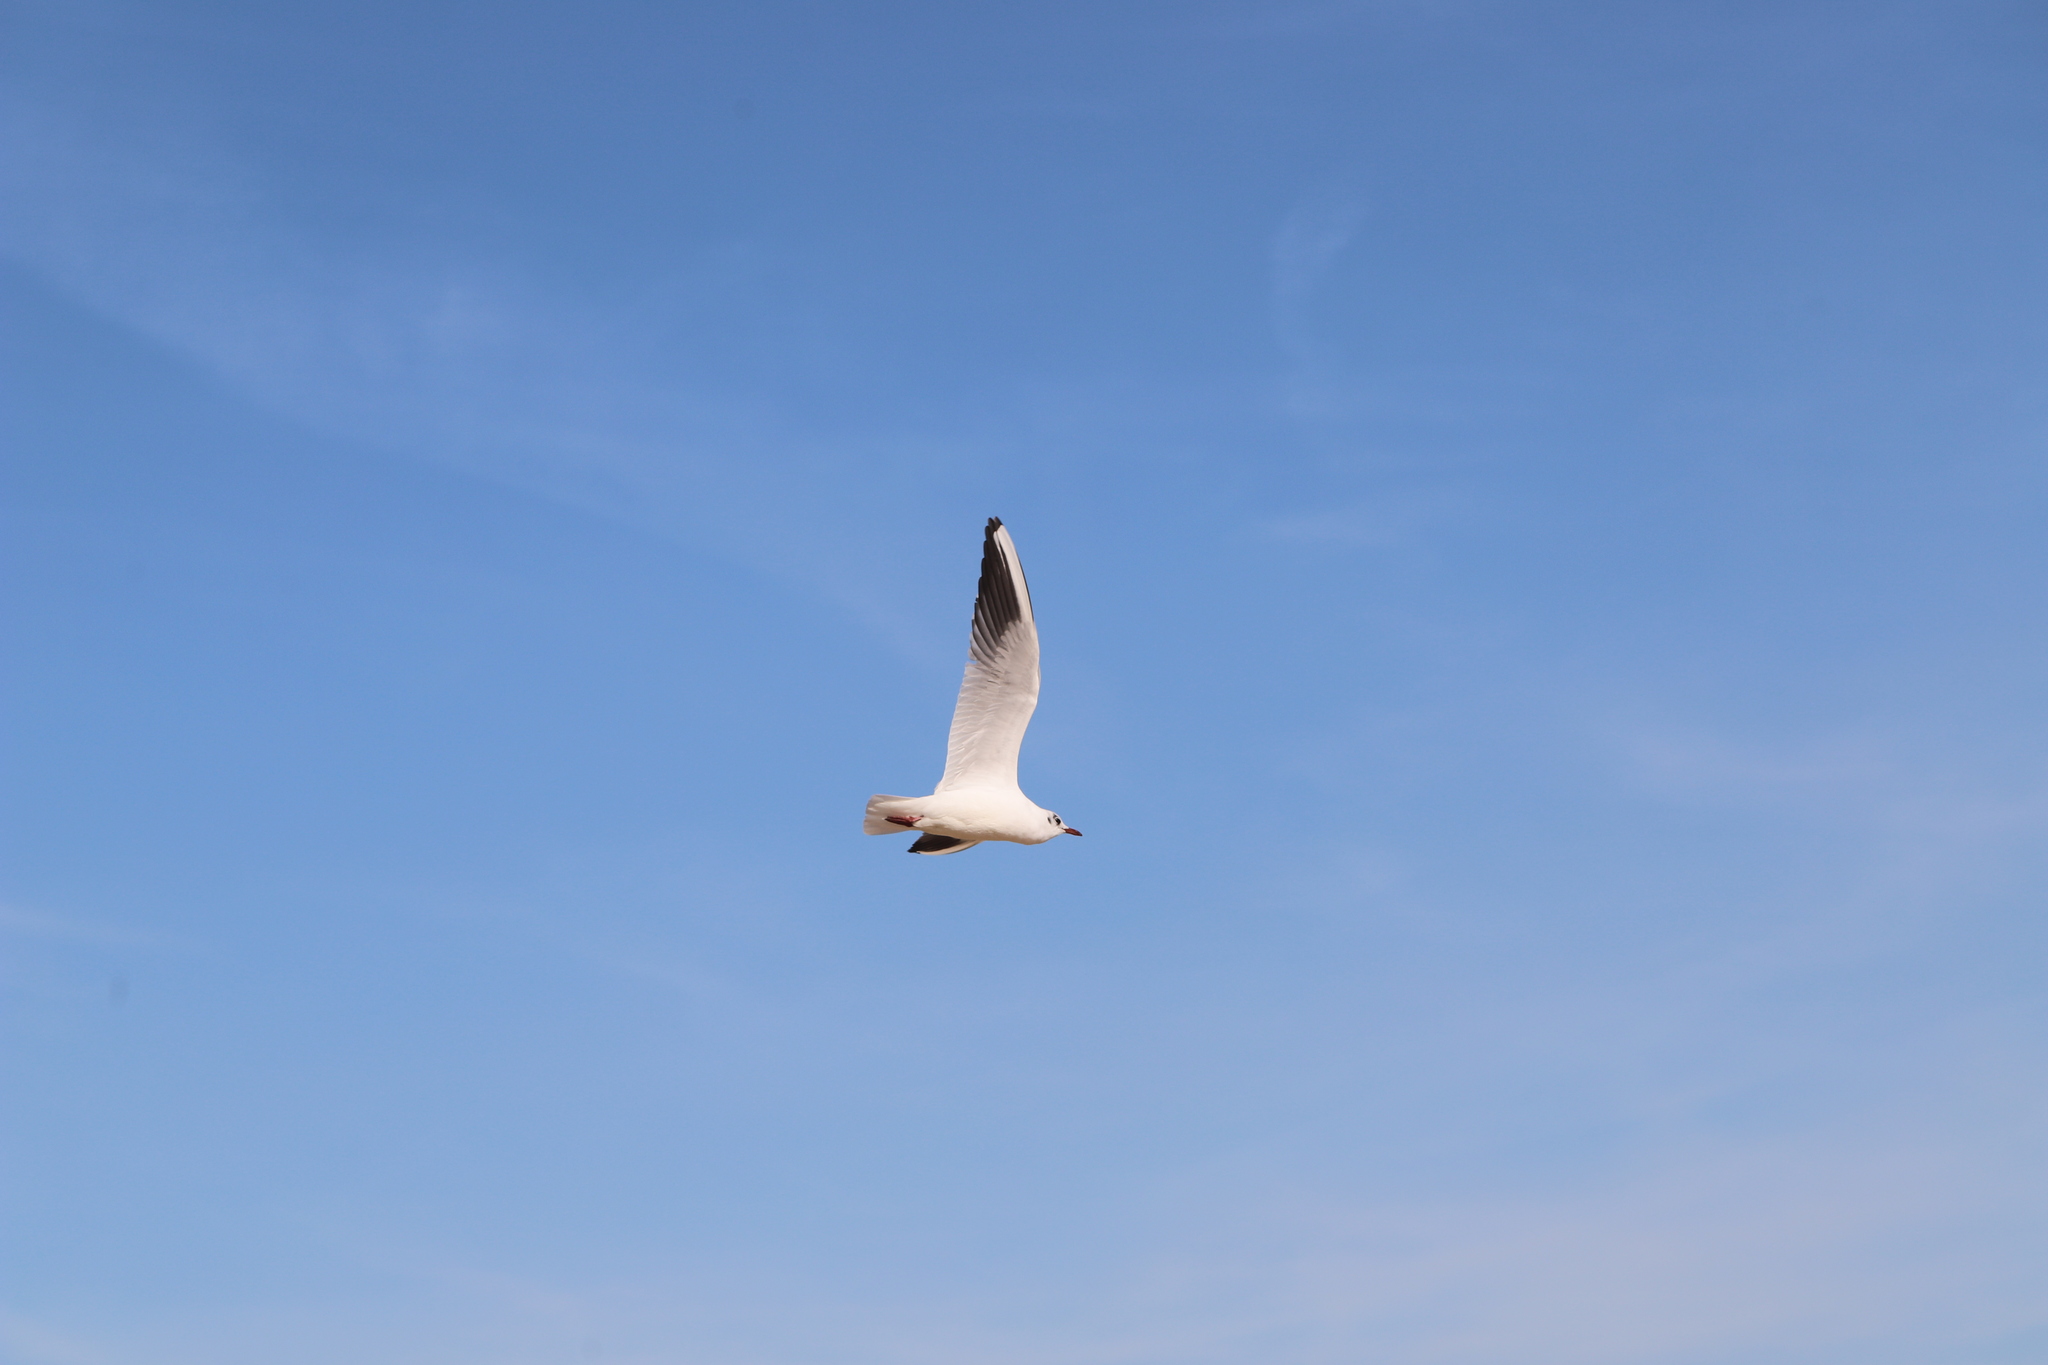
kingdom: Animalia
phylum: Chordata
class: Aves
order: Charadriiformes
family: Laridae
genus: Chroicocephalus
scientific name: Chroicocephalus ridibundus
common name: Black-headed gull
